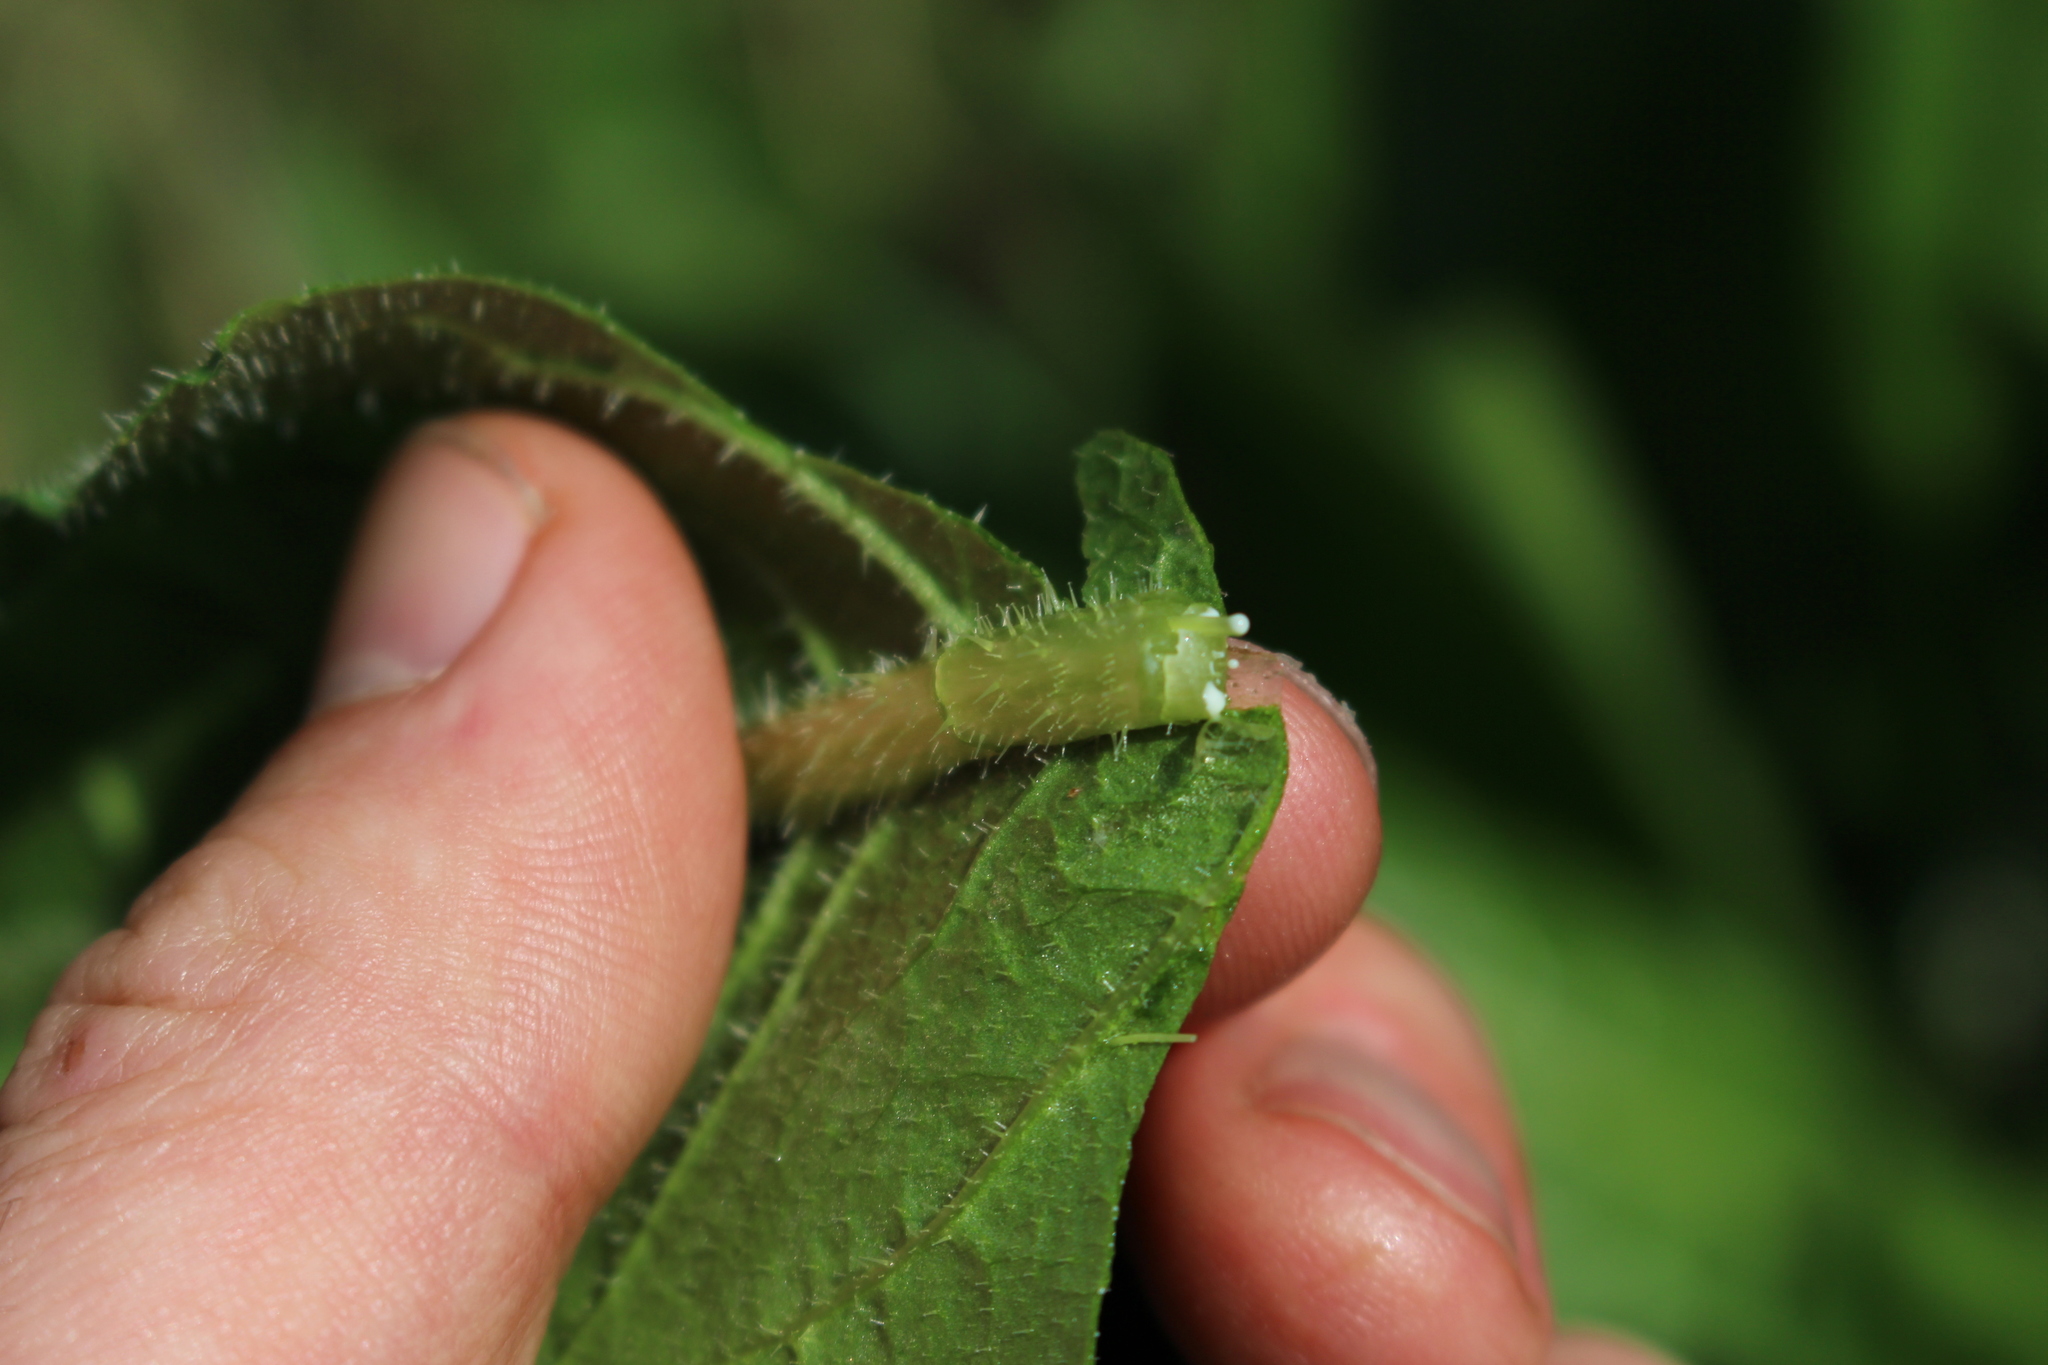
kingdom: Plantae
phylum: Tracheophyta
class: Magnoliopsida
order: Asterales
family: Asteraceae
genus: Lactuca
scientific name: Lactuca serriola
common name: Prickly lettuce
